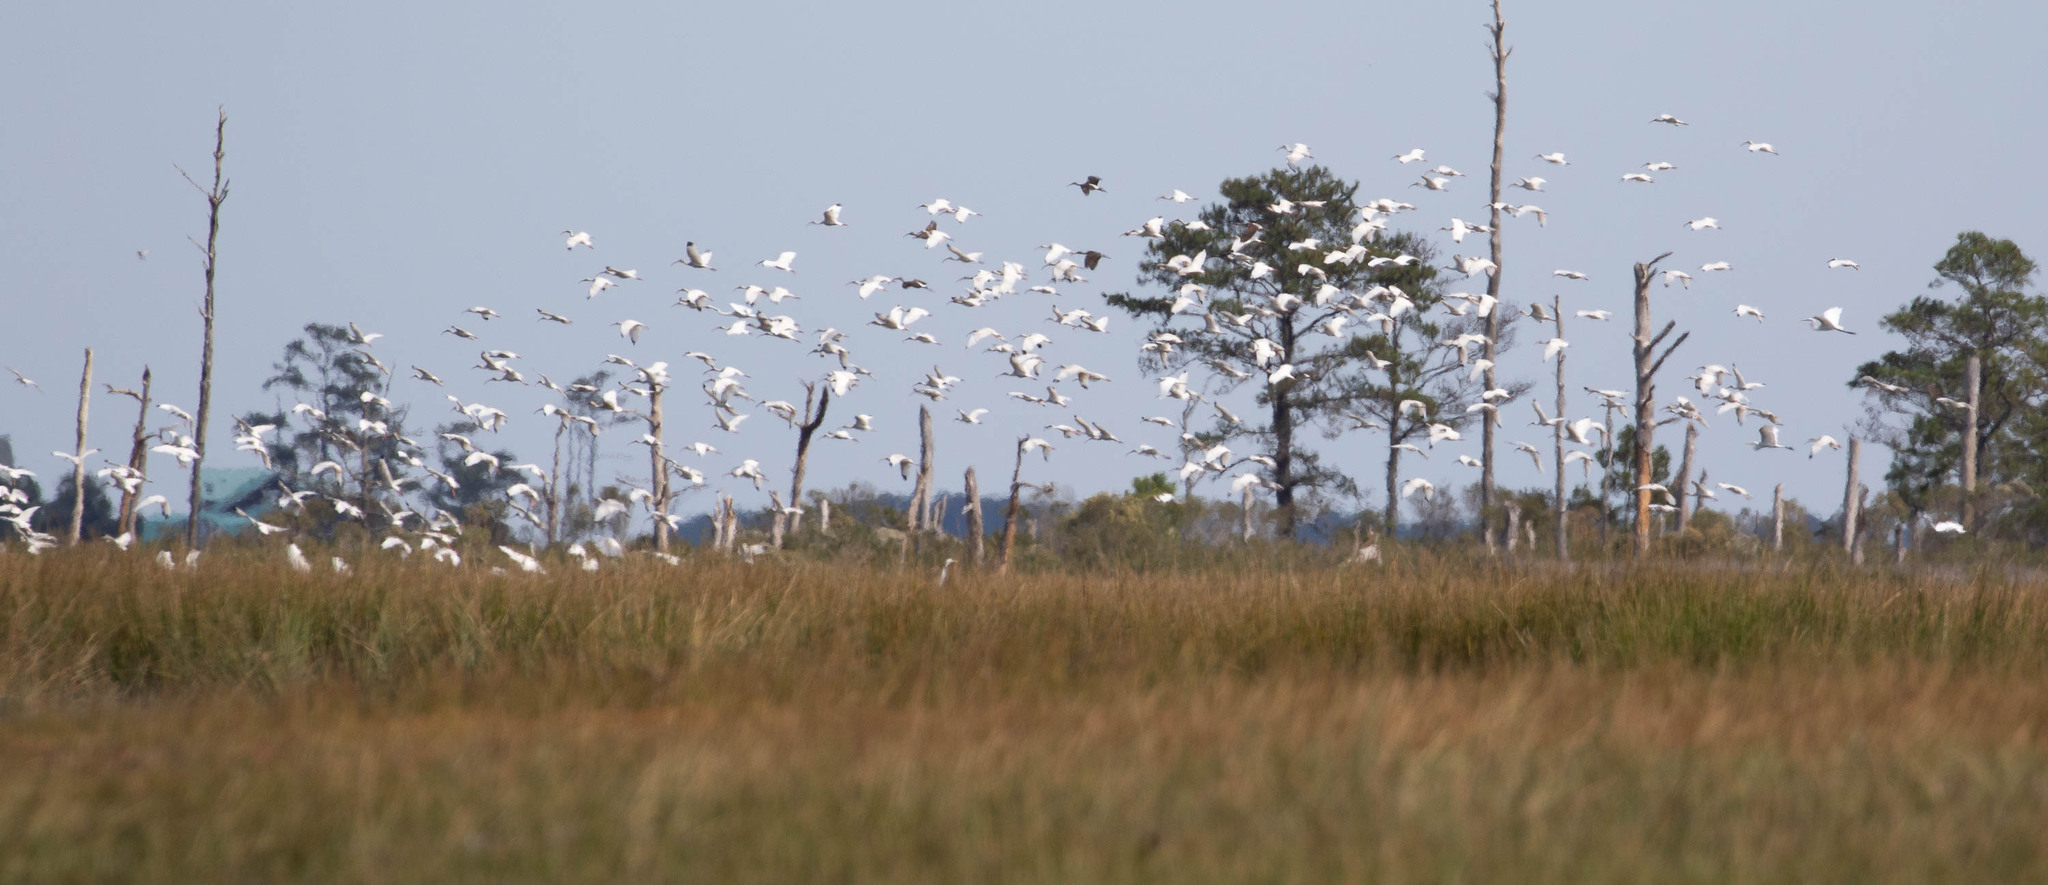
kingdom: Animalia
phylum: Chordata
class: Aves
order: Pelecaniformes
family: Threskiornithidae
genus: Eudocimus
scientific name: Eudocimus albus
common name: White ibis
